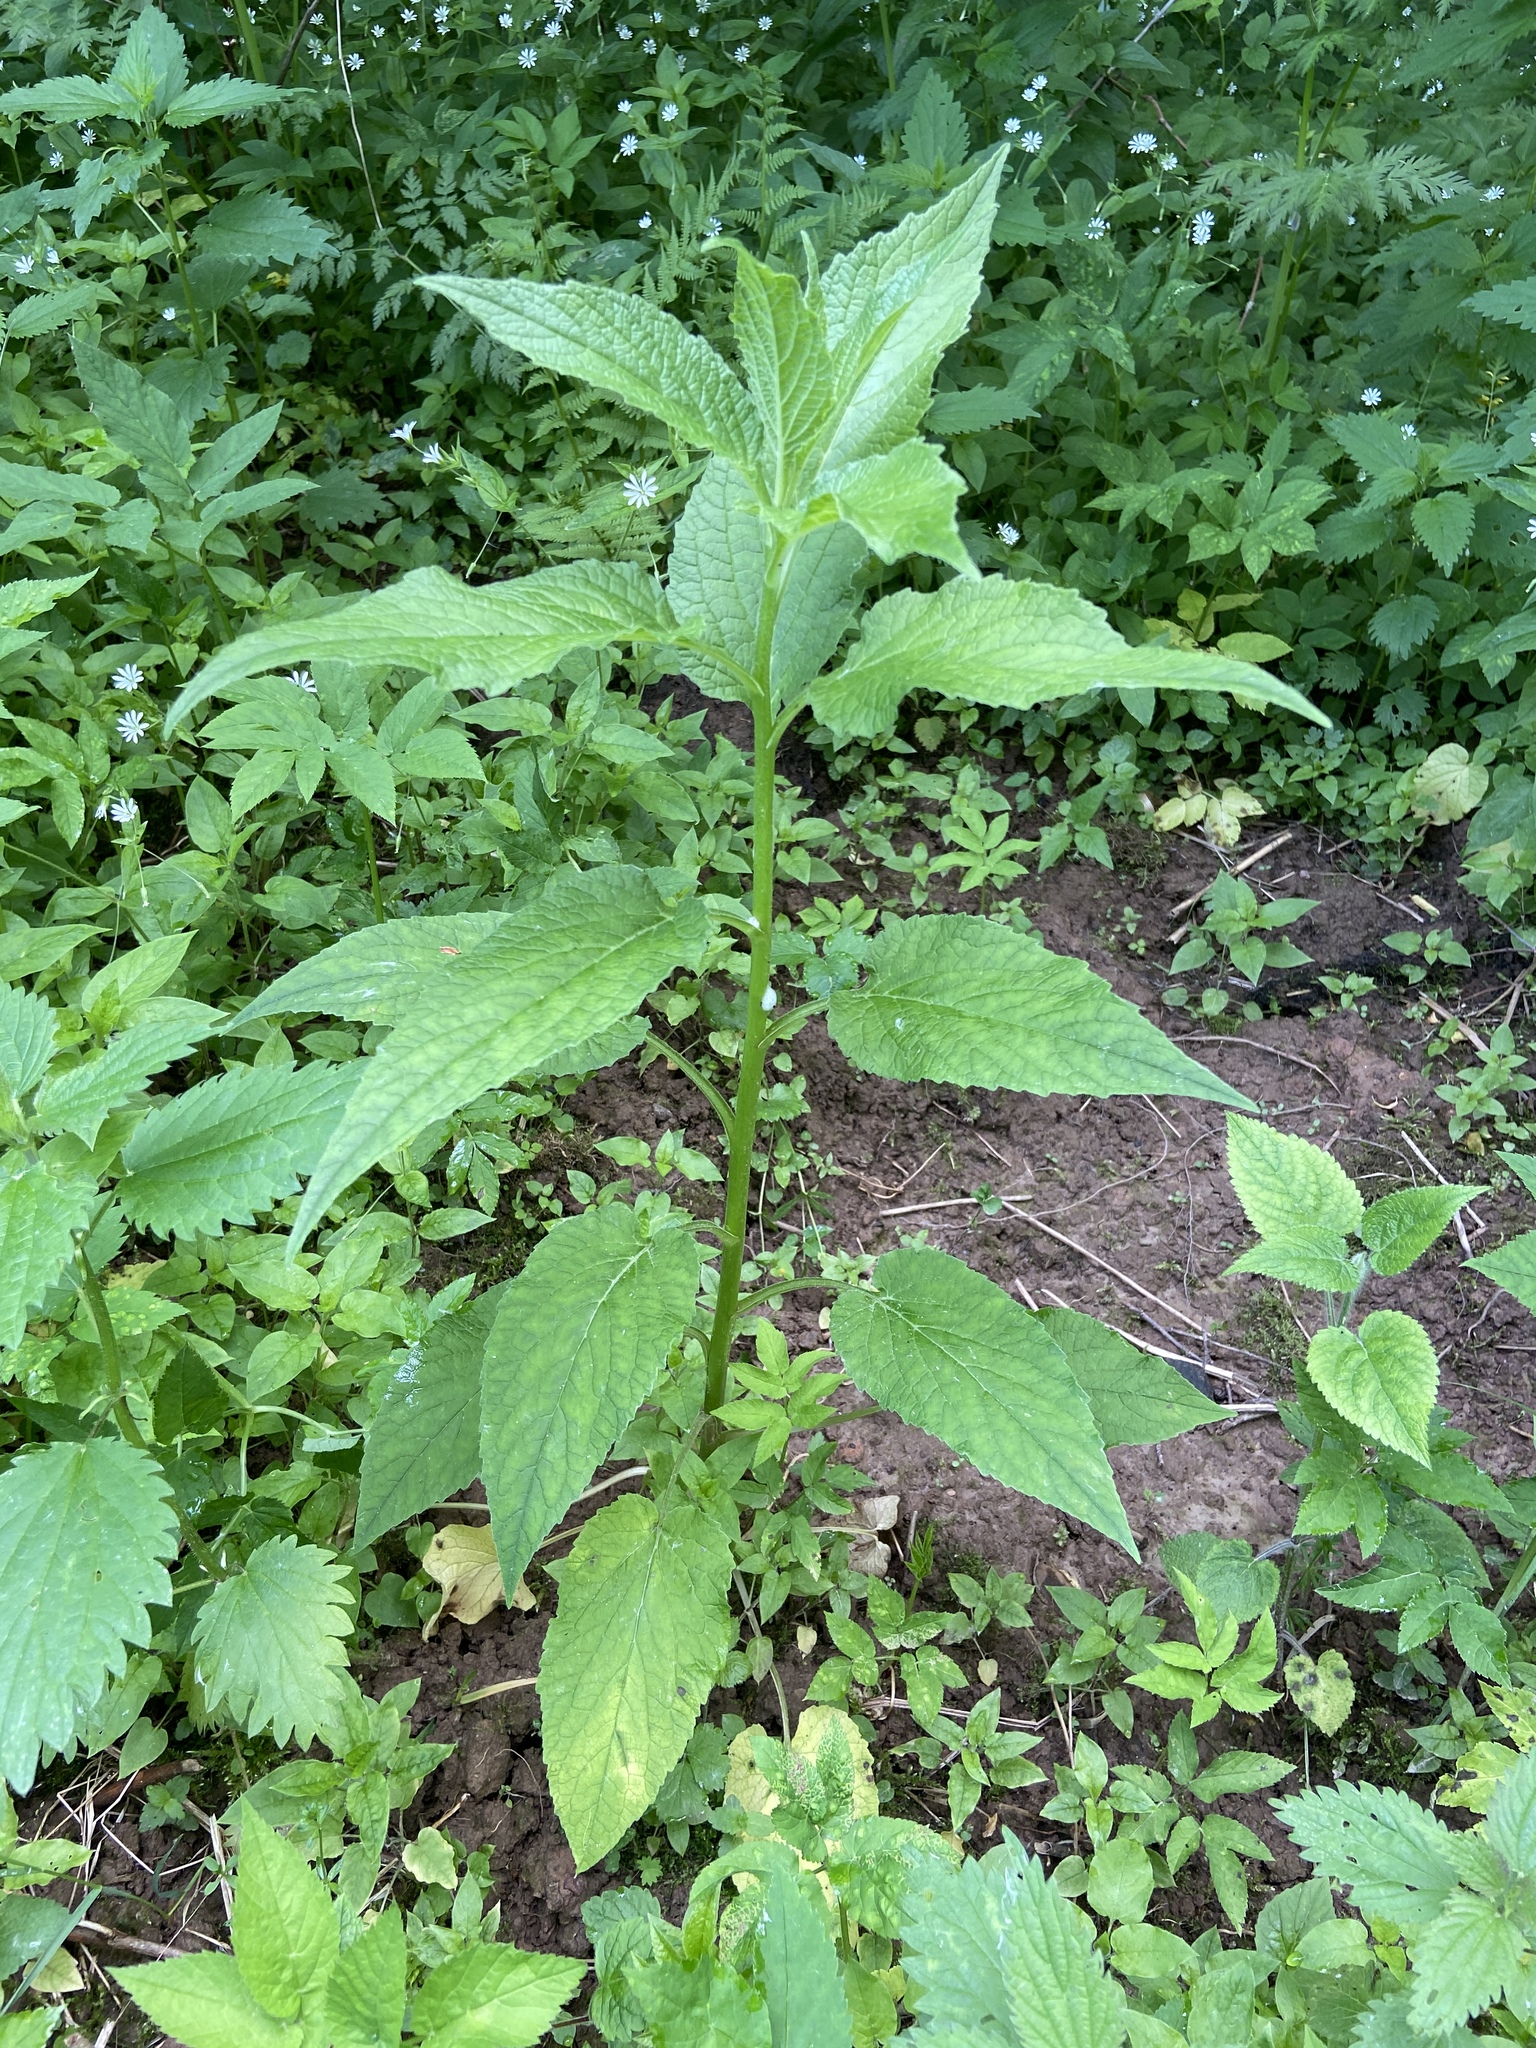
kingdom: Plantae
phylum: Tracheophyta
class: Magnoliopsida
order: Asterales
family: Campanulaceae
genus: Campanula
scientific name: Campanula latifolia
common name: Giant bellflower
